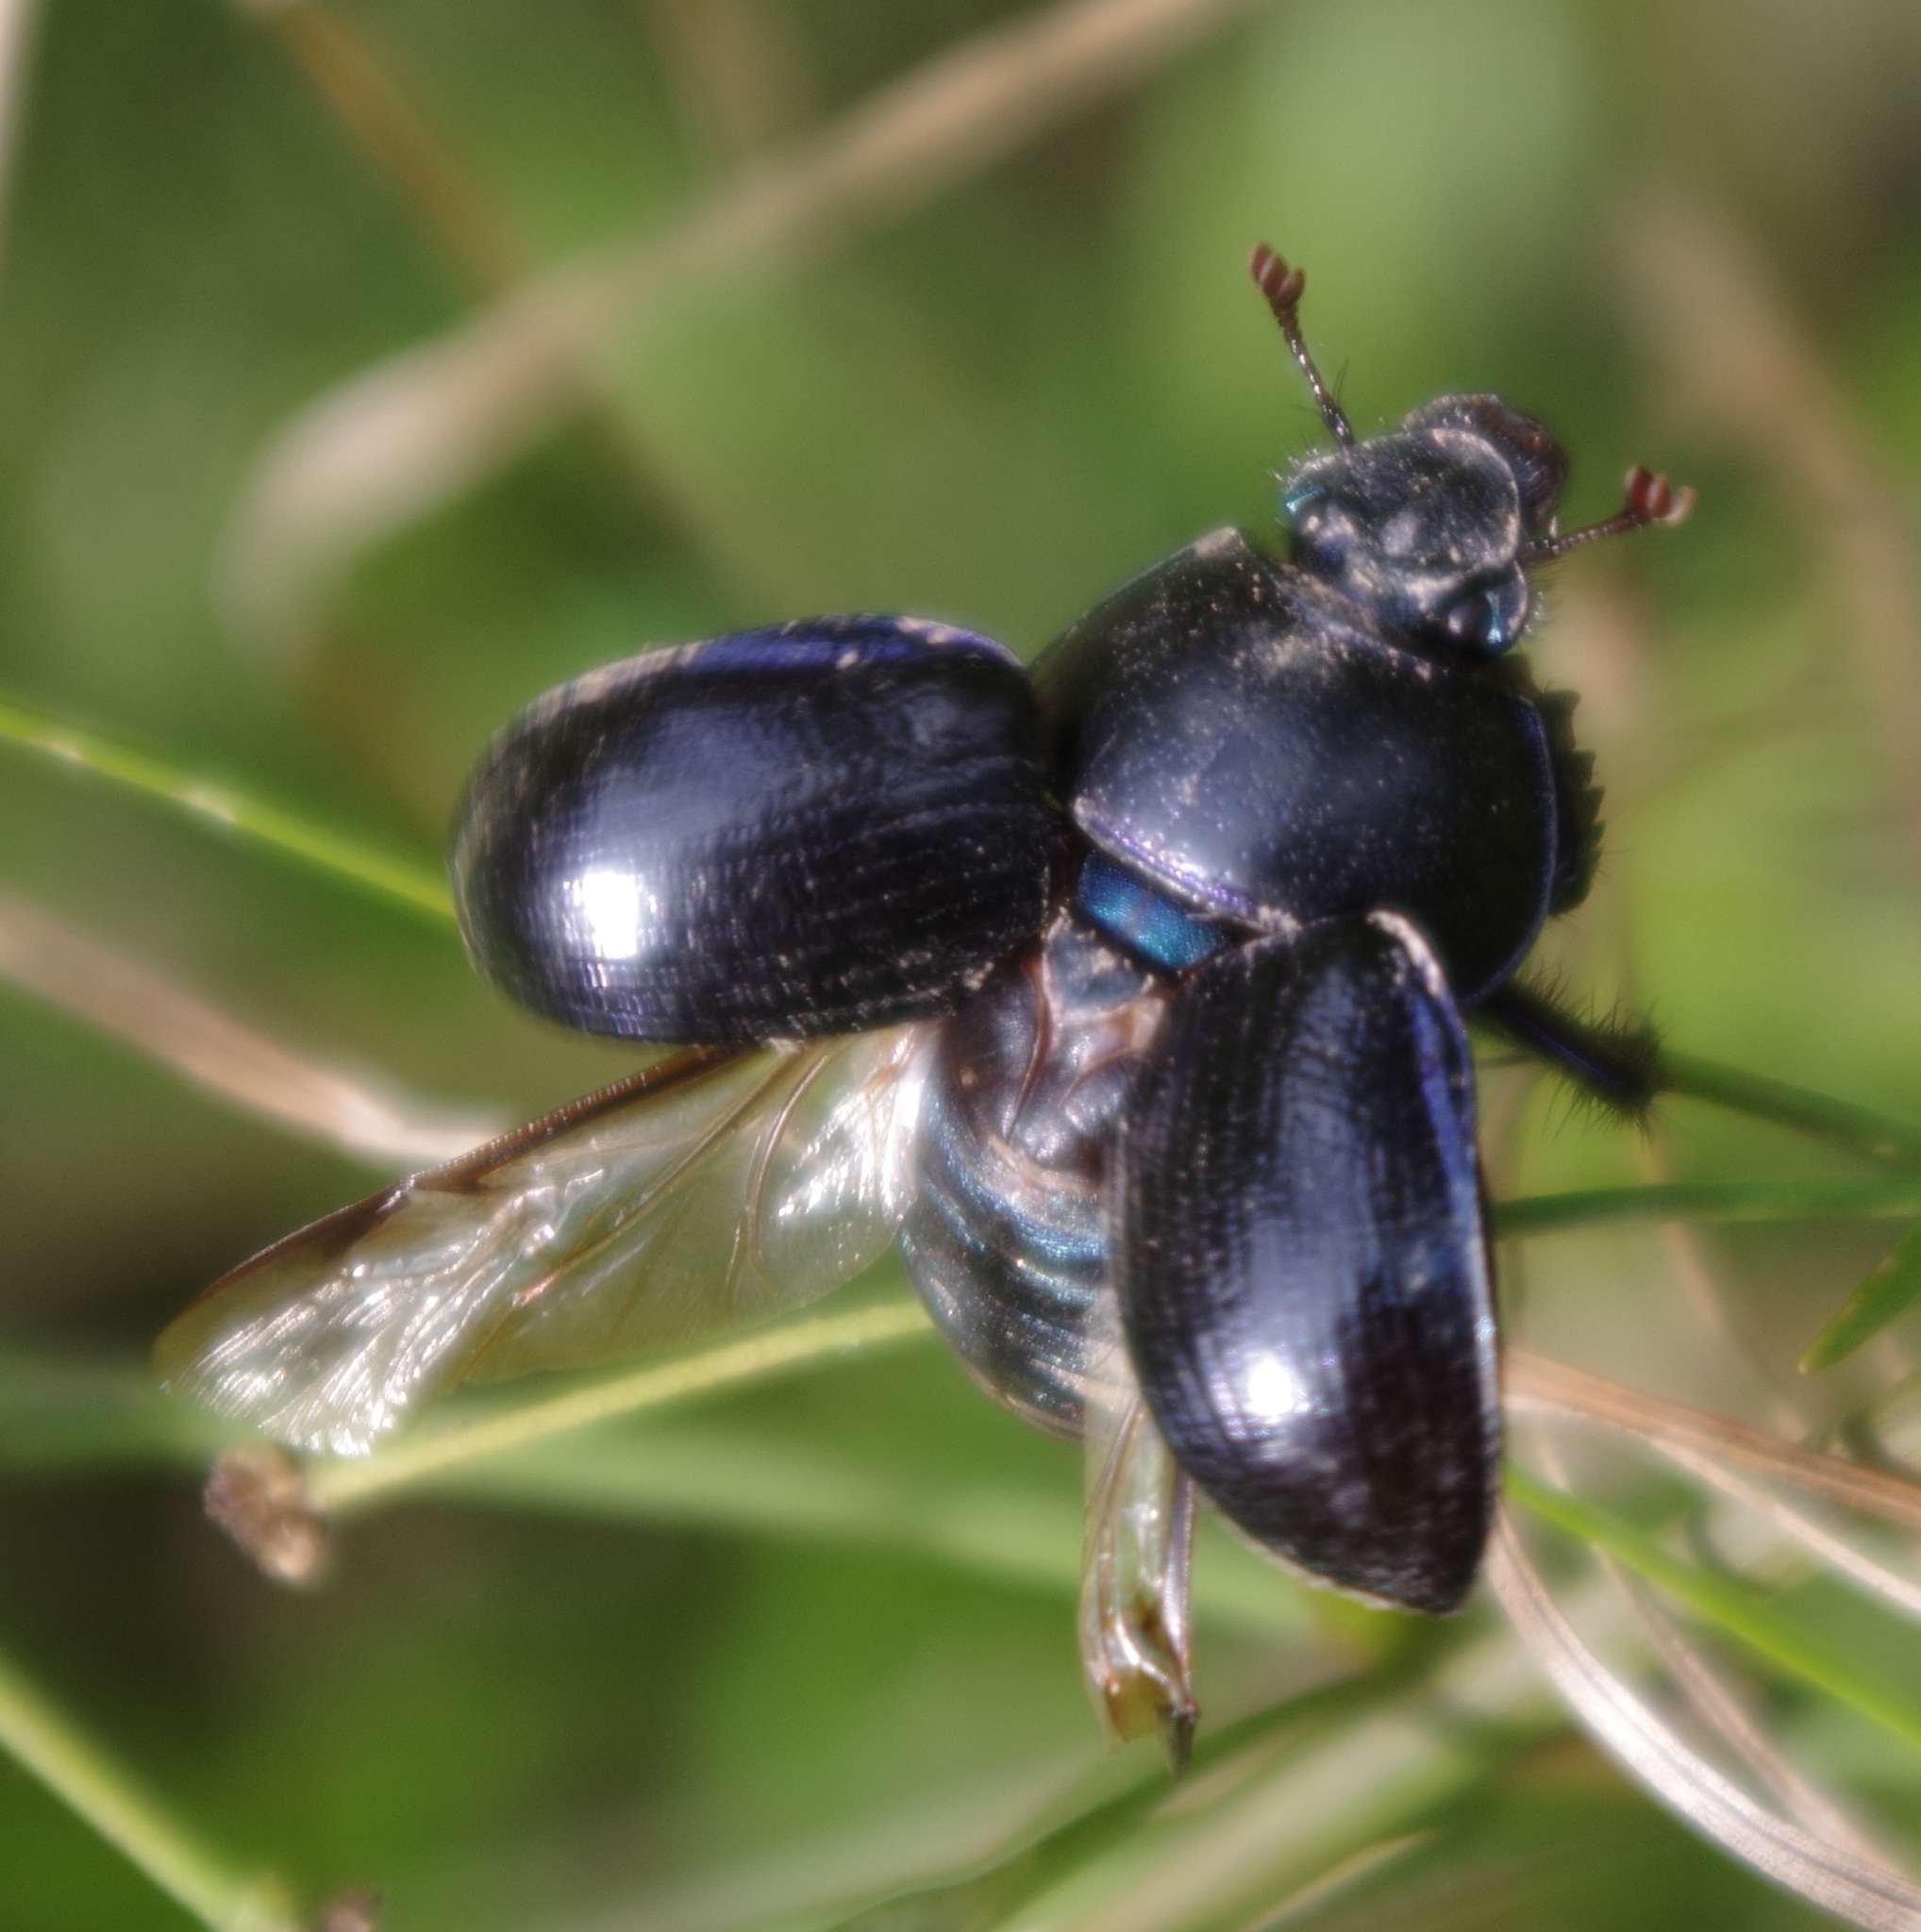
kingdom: Animalia
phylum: Arthropoda
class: Insecta
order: Coleoptera
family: Geotrupidae
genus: Anoplotrupes
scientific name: Anoplotrupes stercorosus
